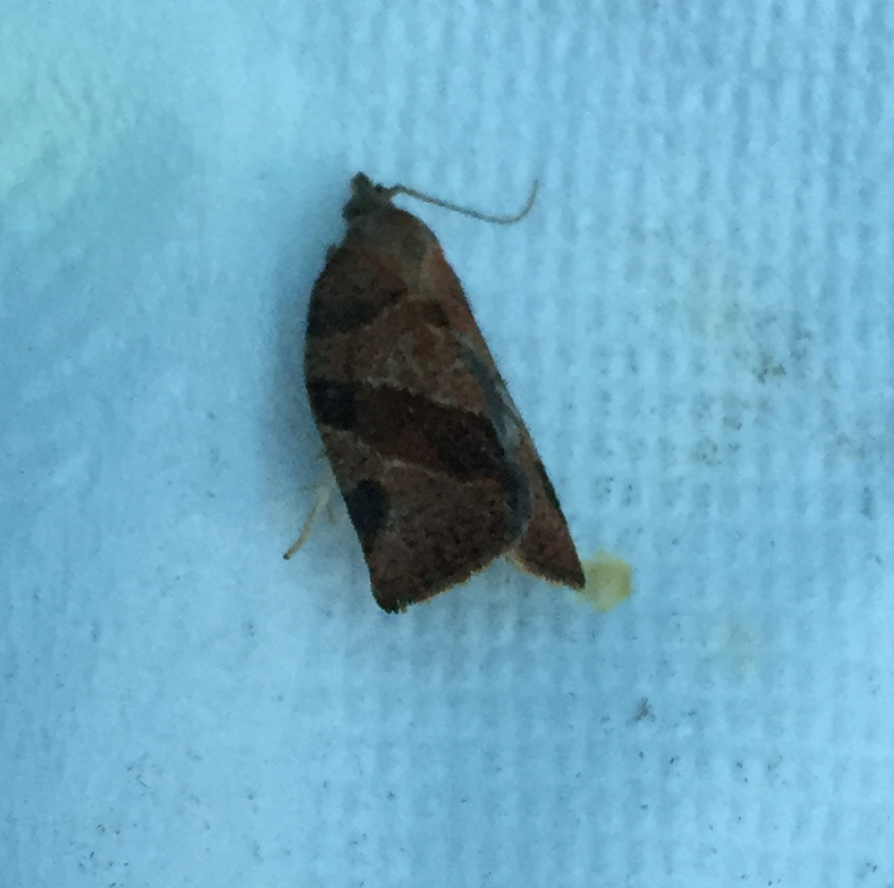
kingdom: Animalia
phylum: Arthropoda
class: Insecta
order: Lepidoptera
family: Tortricidae
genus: Pandemis
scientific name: Pandemis canadana
